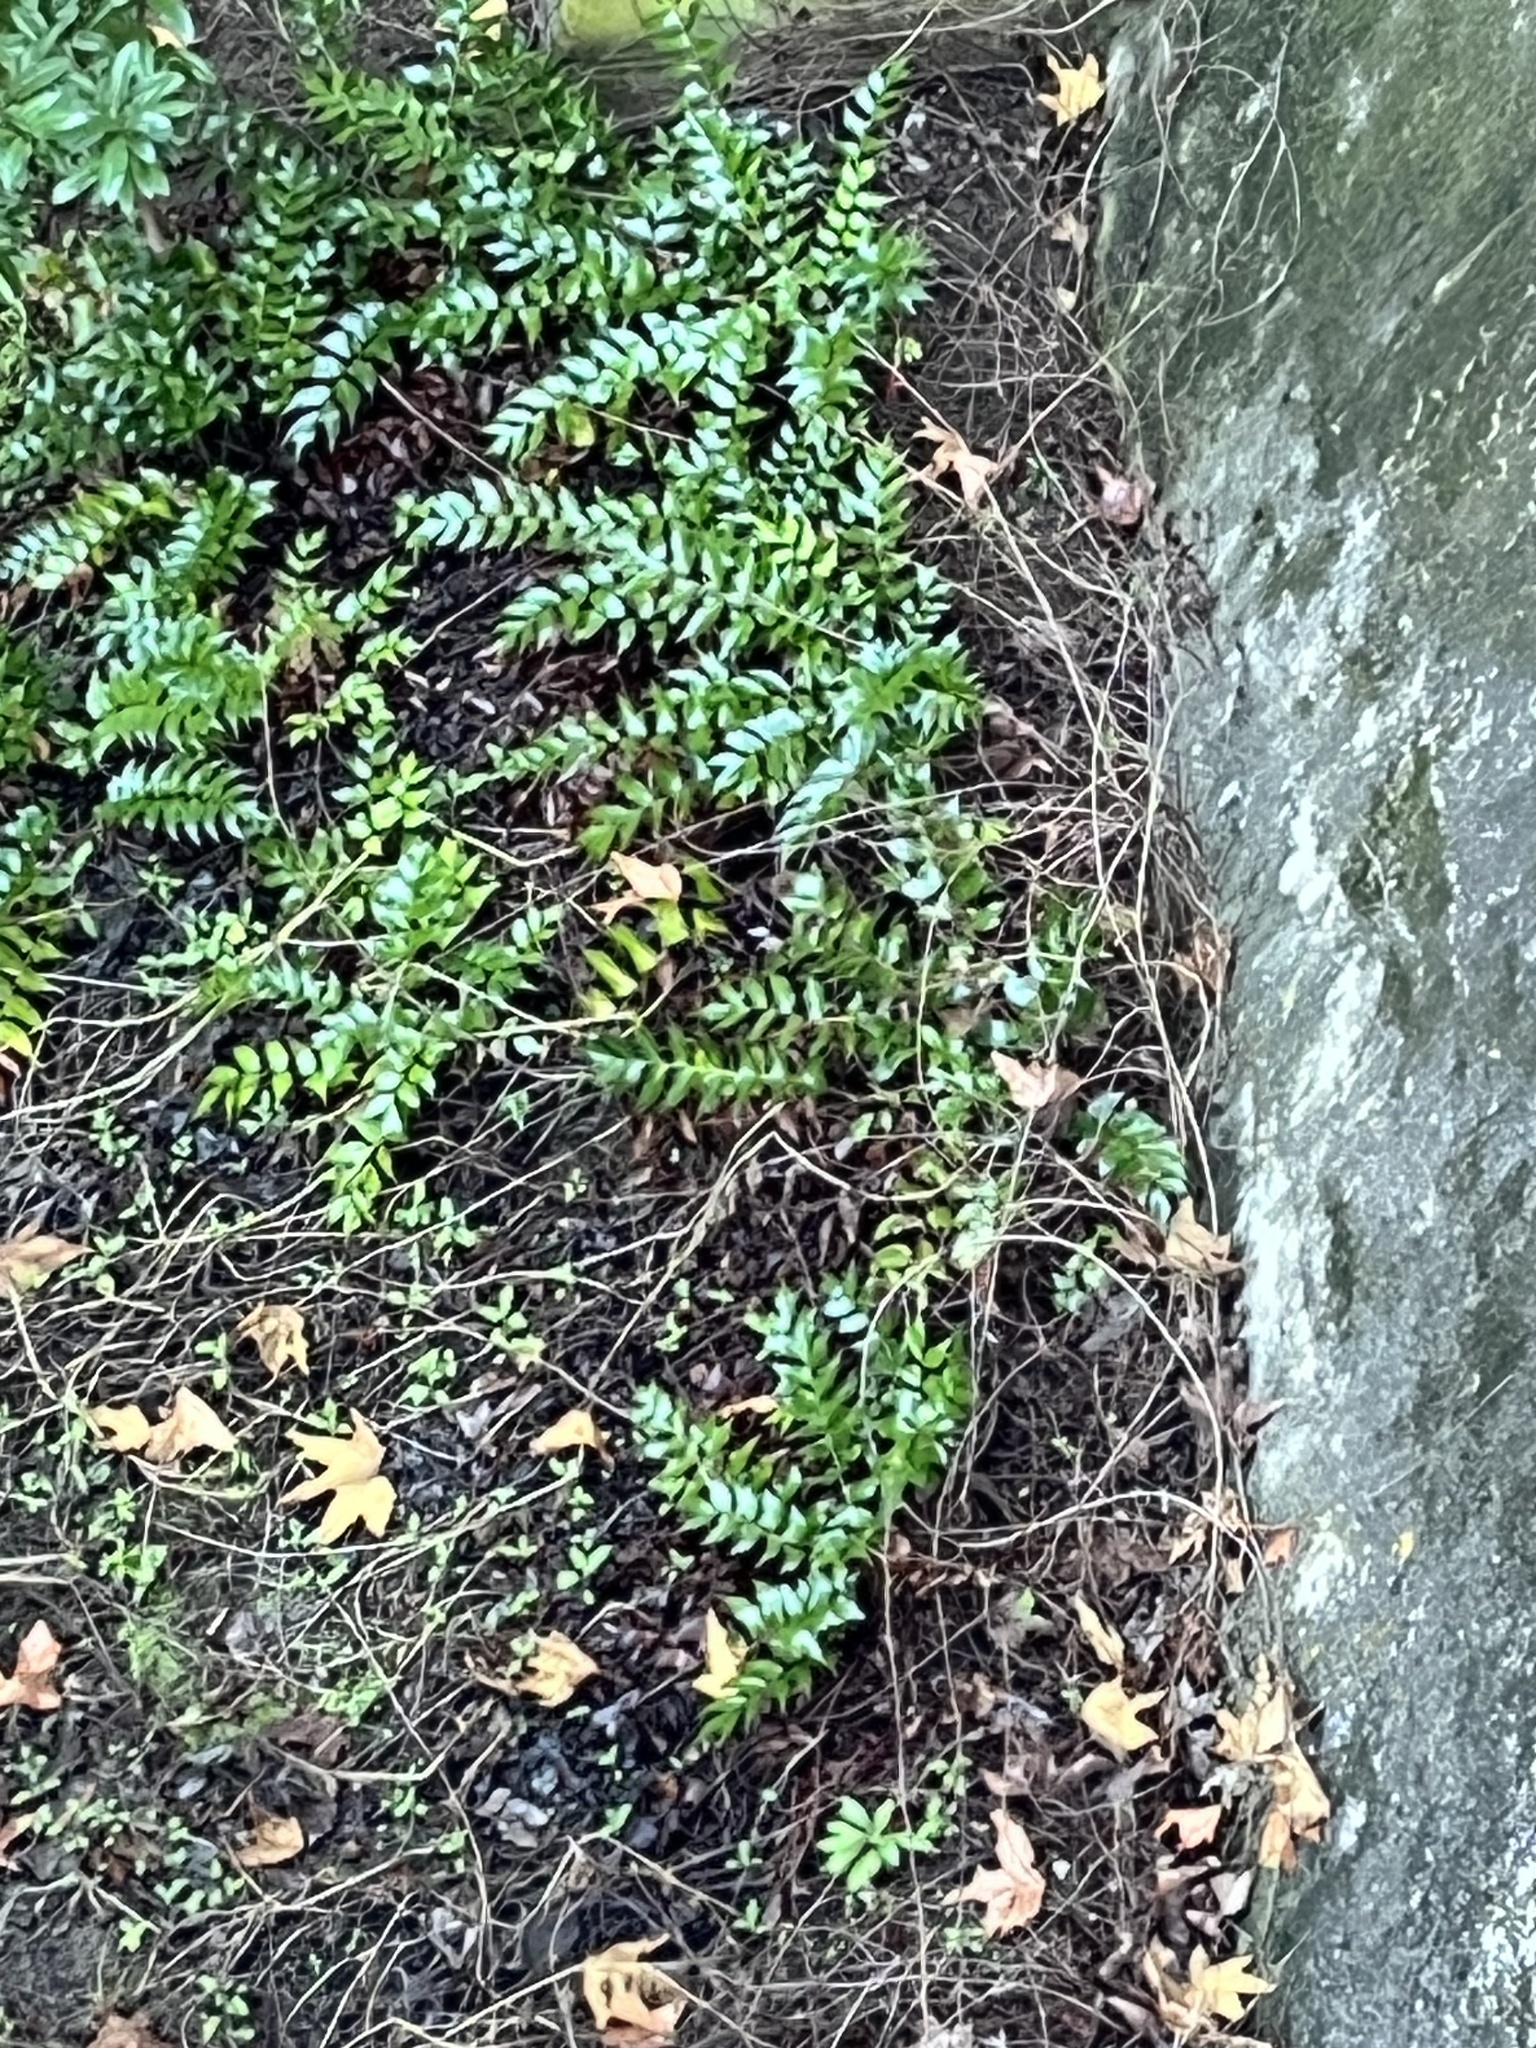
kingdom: Plantae
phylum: Tracheophyta
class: Polypodiopsida
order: Polypodiales
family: Dryopteridaceae
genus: Cyrtomium
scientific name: Cyrtomium falcatum
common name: House holly-fern
